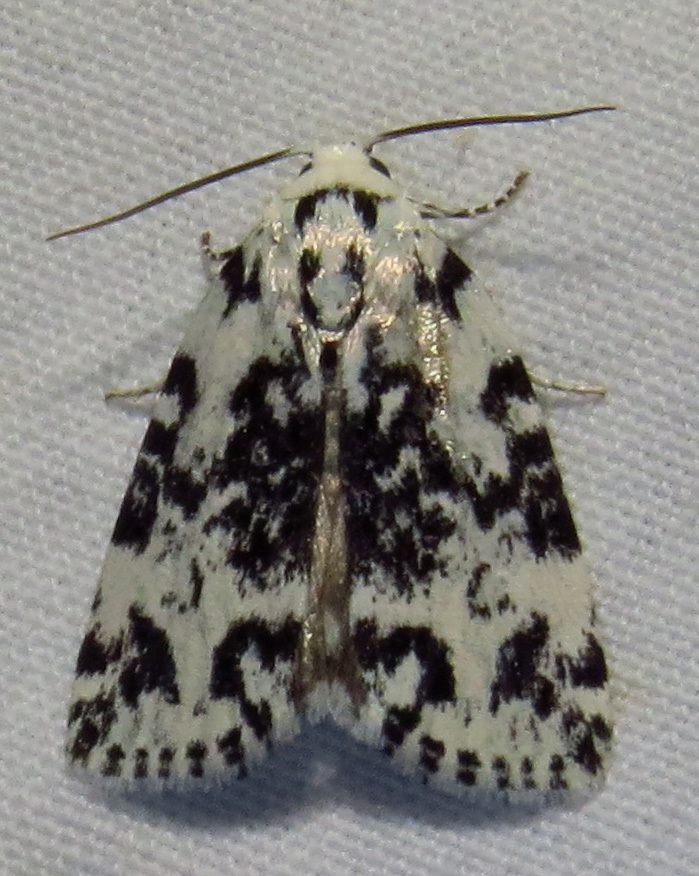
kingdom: Animalia
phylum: Arthropoda
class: Insecta
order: Lepidoptera
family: Noctuidae
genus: Polygrammate
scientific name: Polygrammate hebraeicum
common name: Hebrew moth
